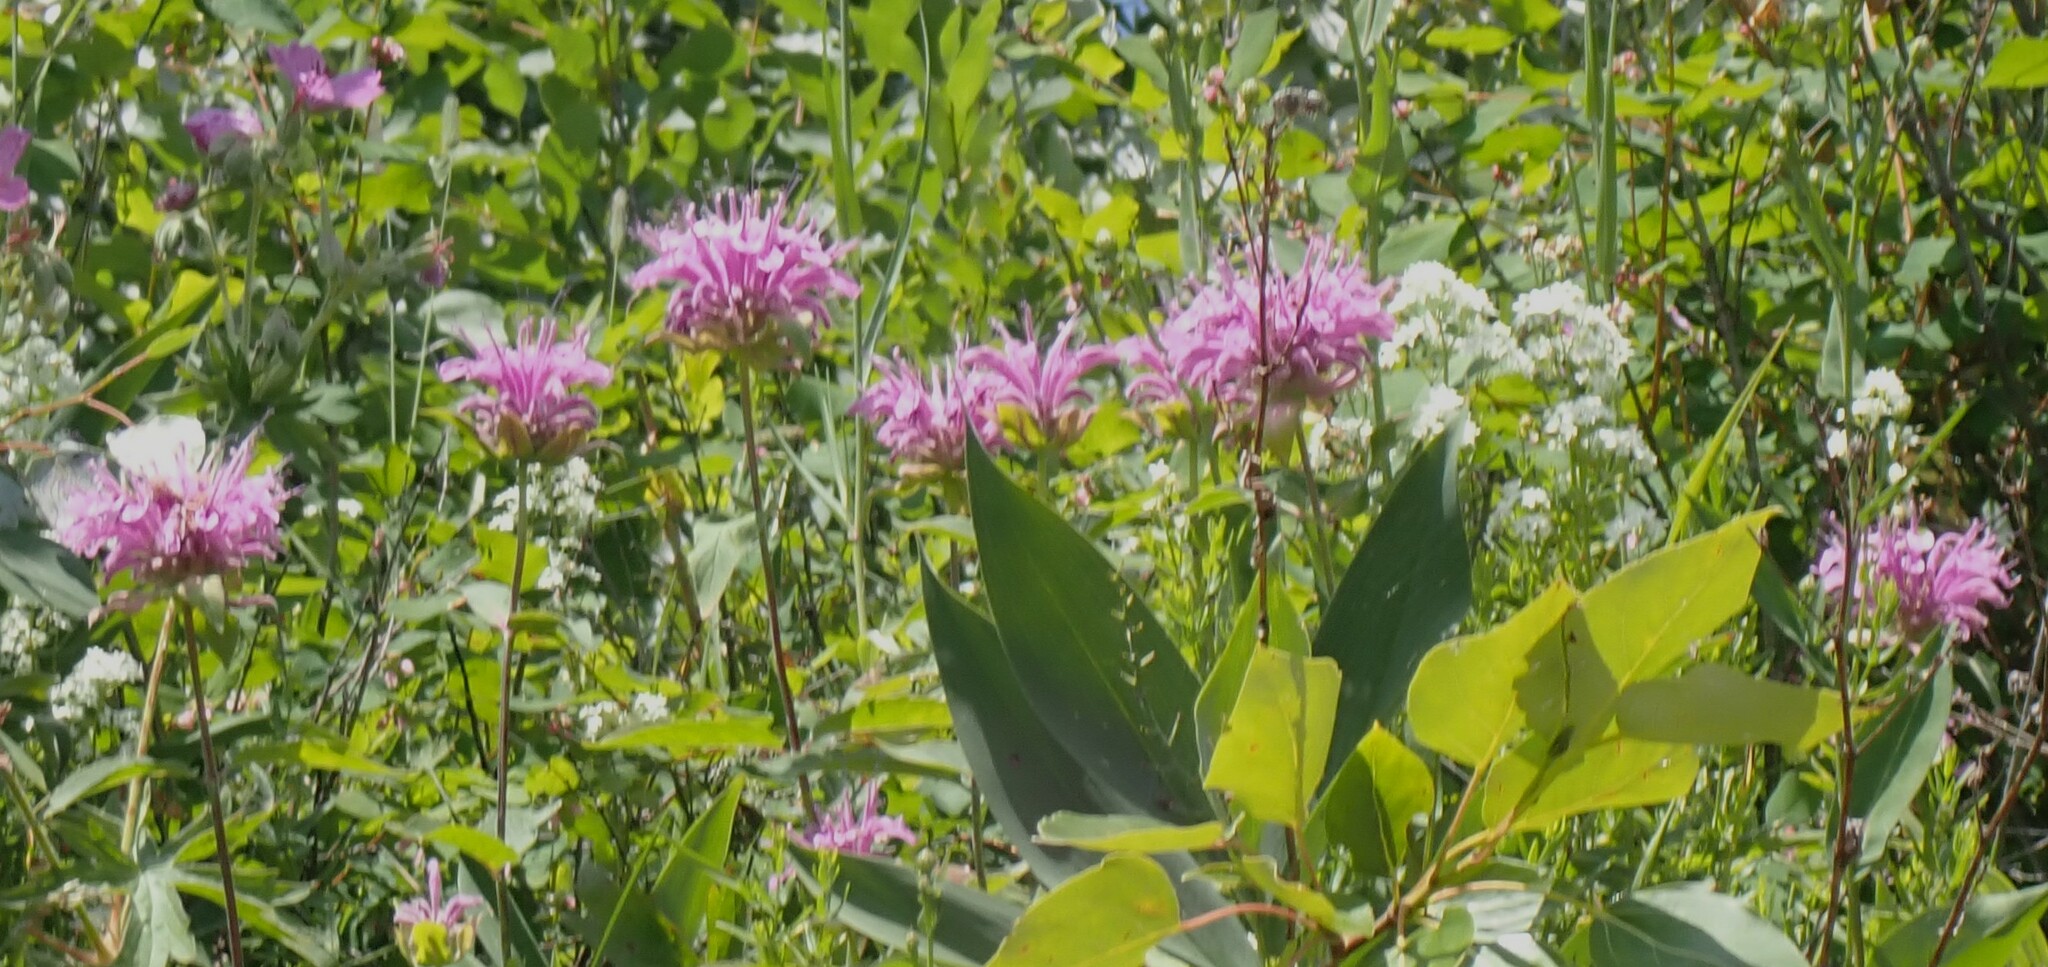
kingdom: Plantae
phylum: Tracheophyta
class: Magnoliopsida
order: Lamiales
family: Lamiaceae
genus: Monarda
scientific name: Monarda fistulosa
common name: Purple beebalm
